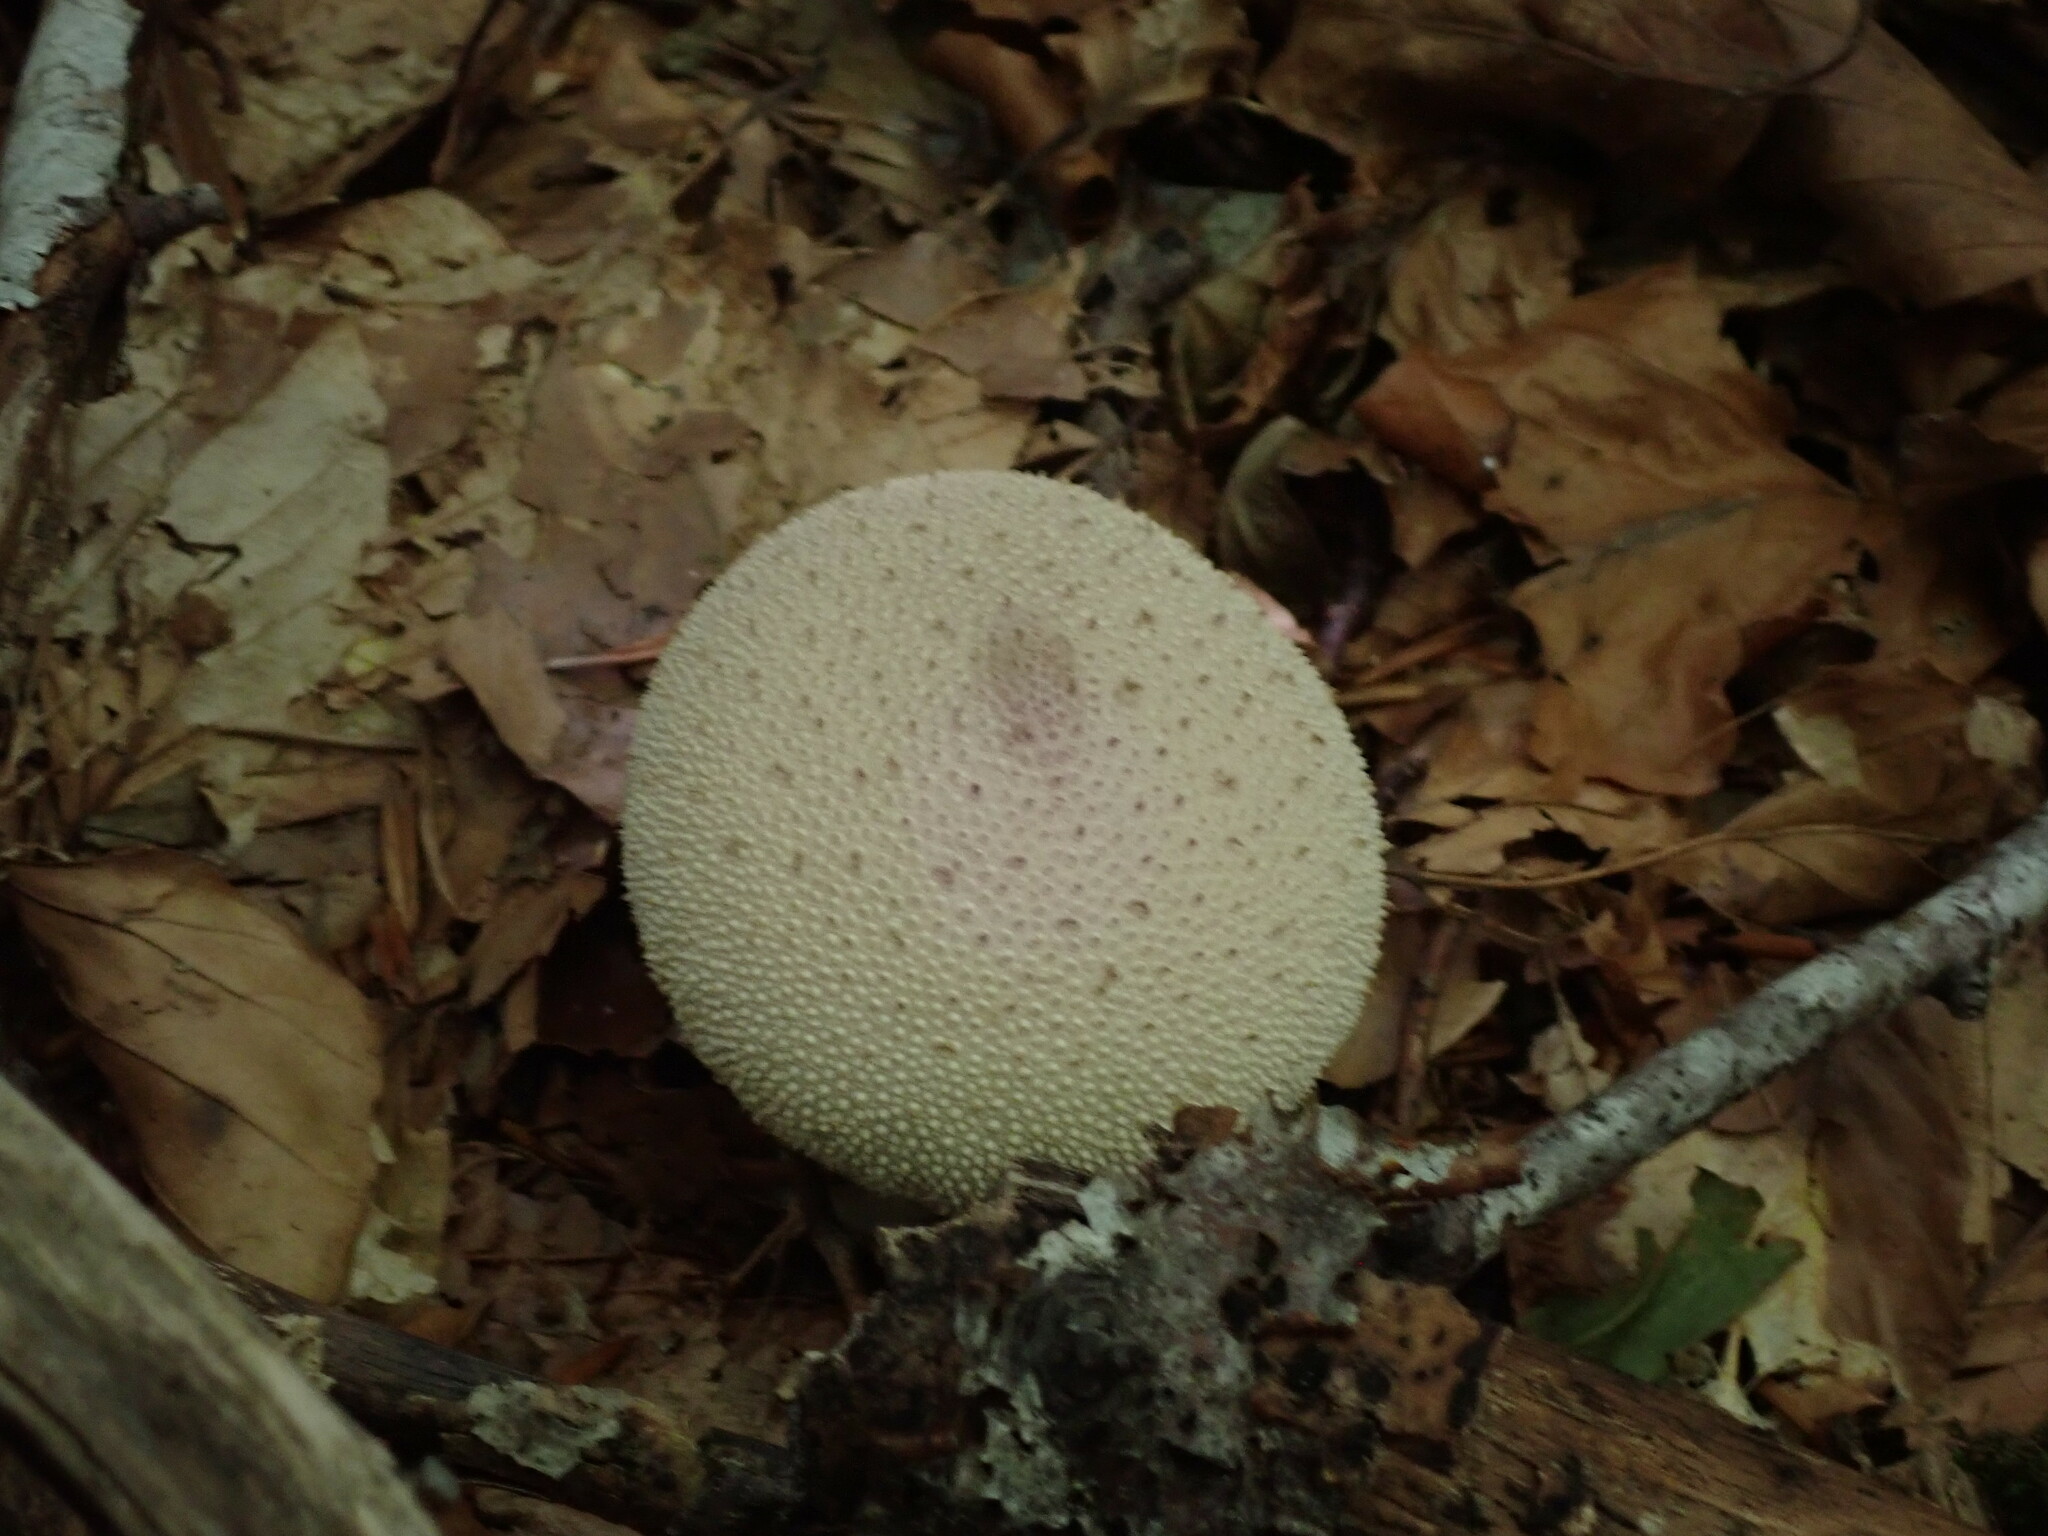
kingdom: Fungi
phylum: Basidiomycota
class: Agaricomycetes
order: Agaricales
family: Lycoperdaceae
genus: Lycoperdon
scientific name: Lycoperdon perlatum
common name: Common puffball
